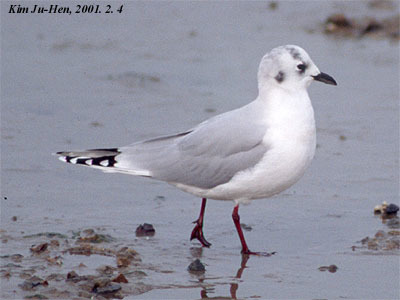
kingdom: Animalia
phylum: Chordata
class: Aves
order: Charadriiformes
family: Laridae
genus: Chroicocephalus
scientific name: Chroicocephalus saundersi
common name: Saunders's gull
